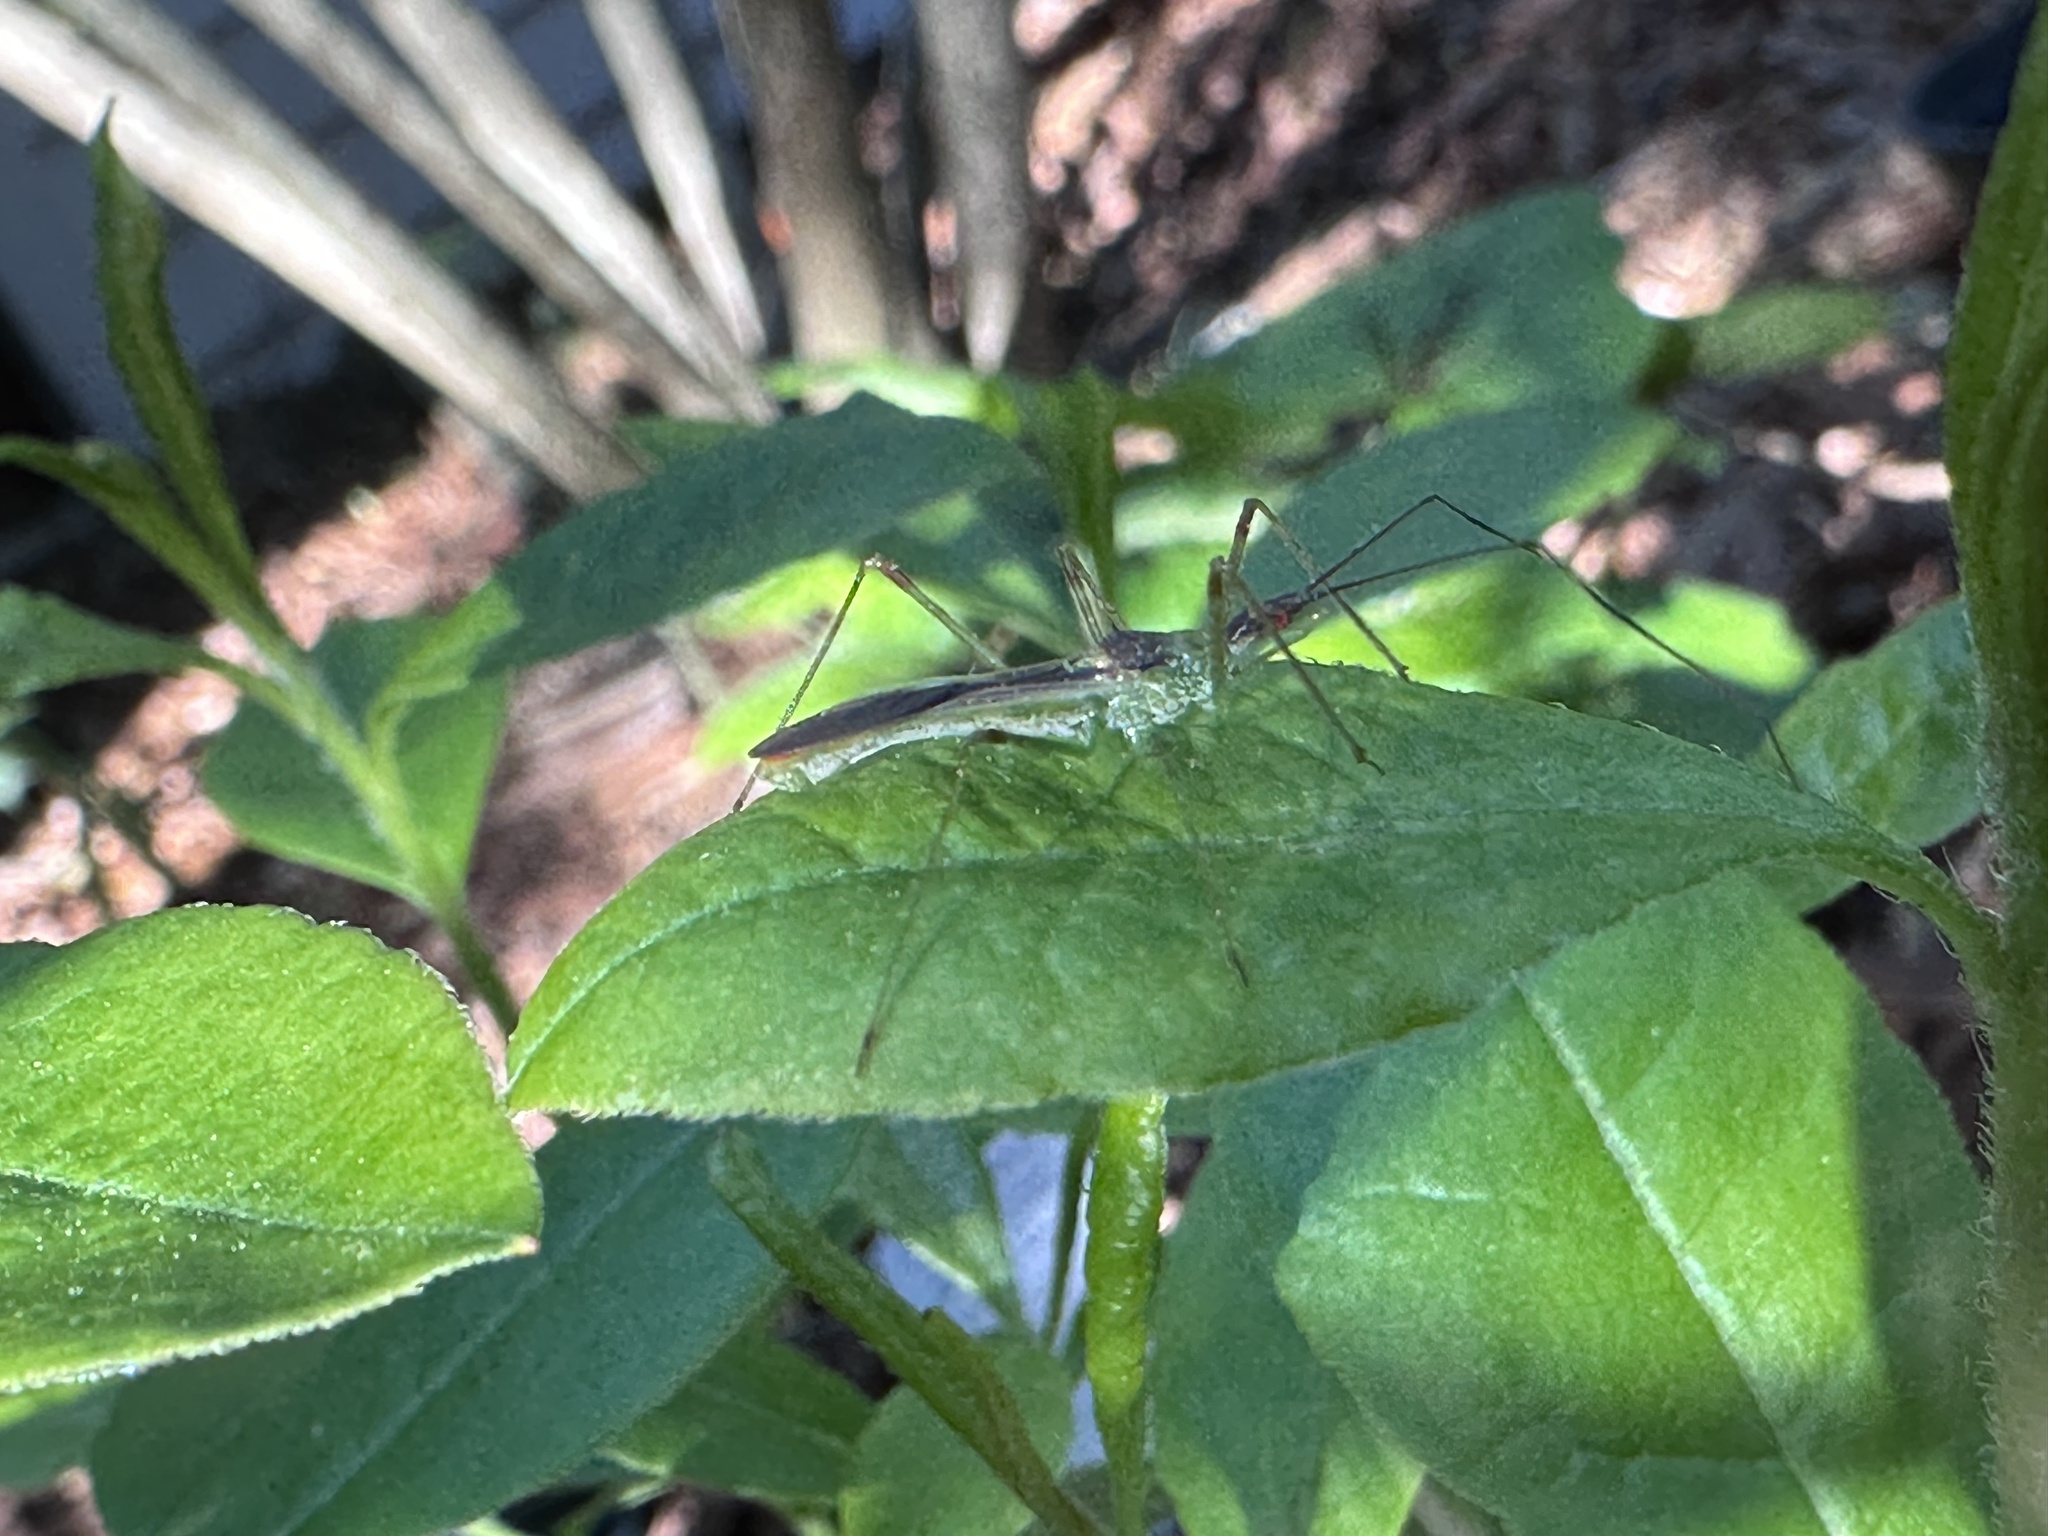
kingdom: Animalia
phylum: Arthropoda
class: Insecta
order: Hemiptera
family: Reduviidae
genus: Zelus
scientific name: Zelus luridus
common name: Pale green assassin bug
